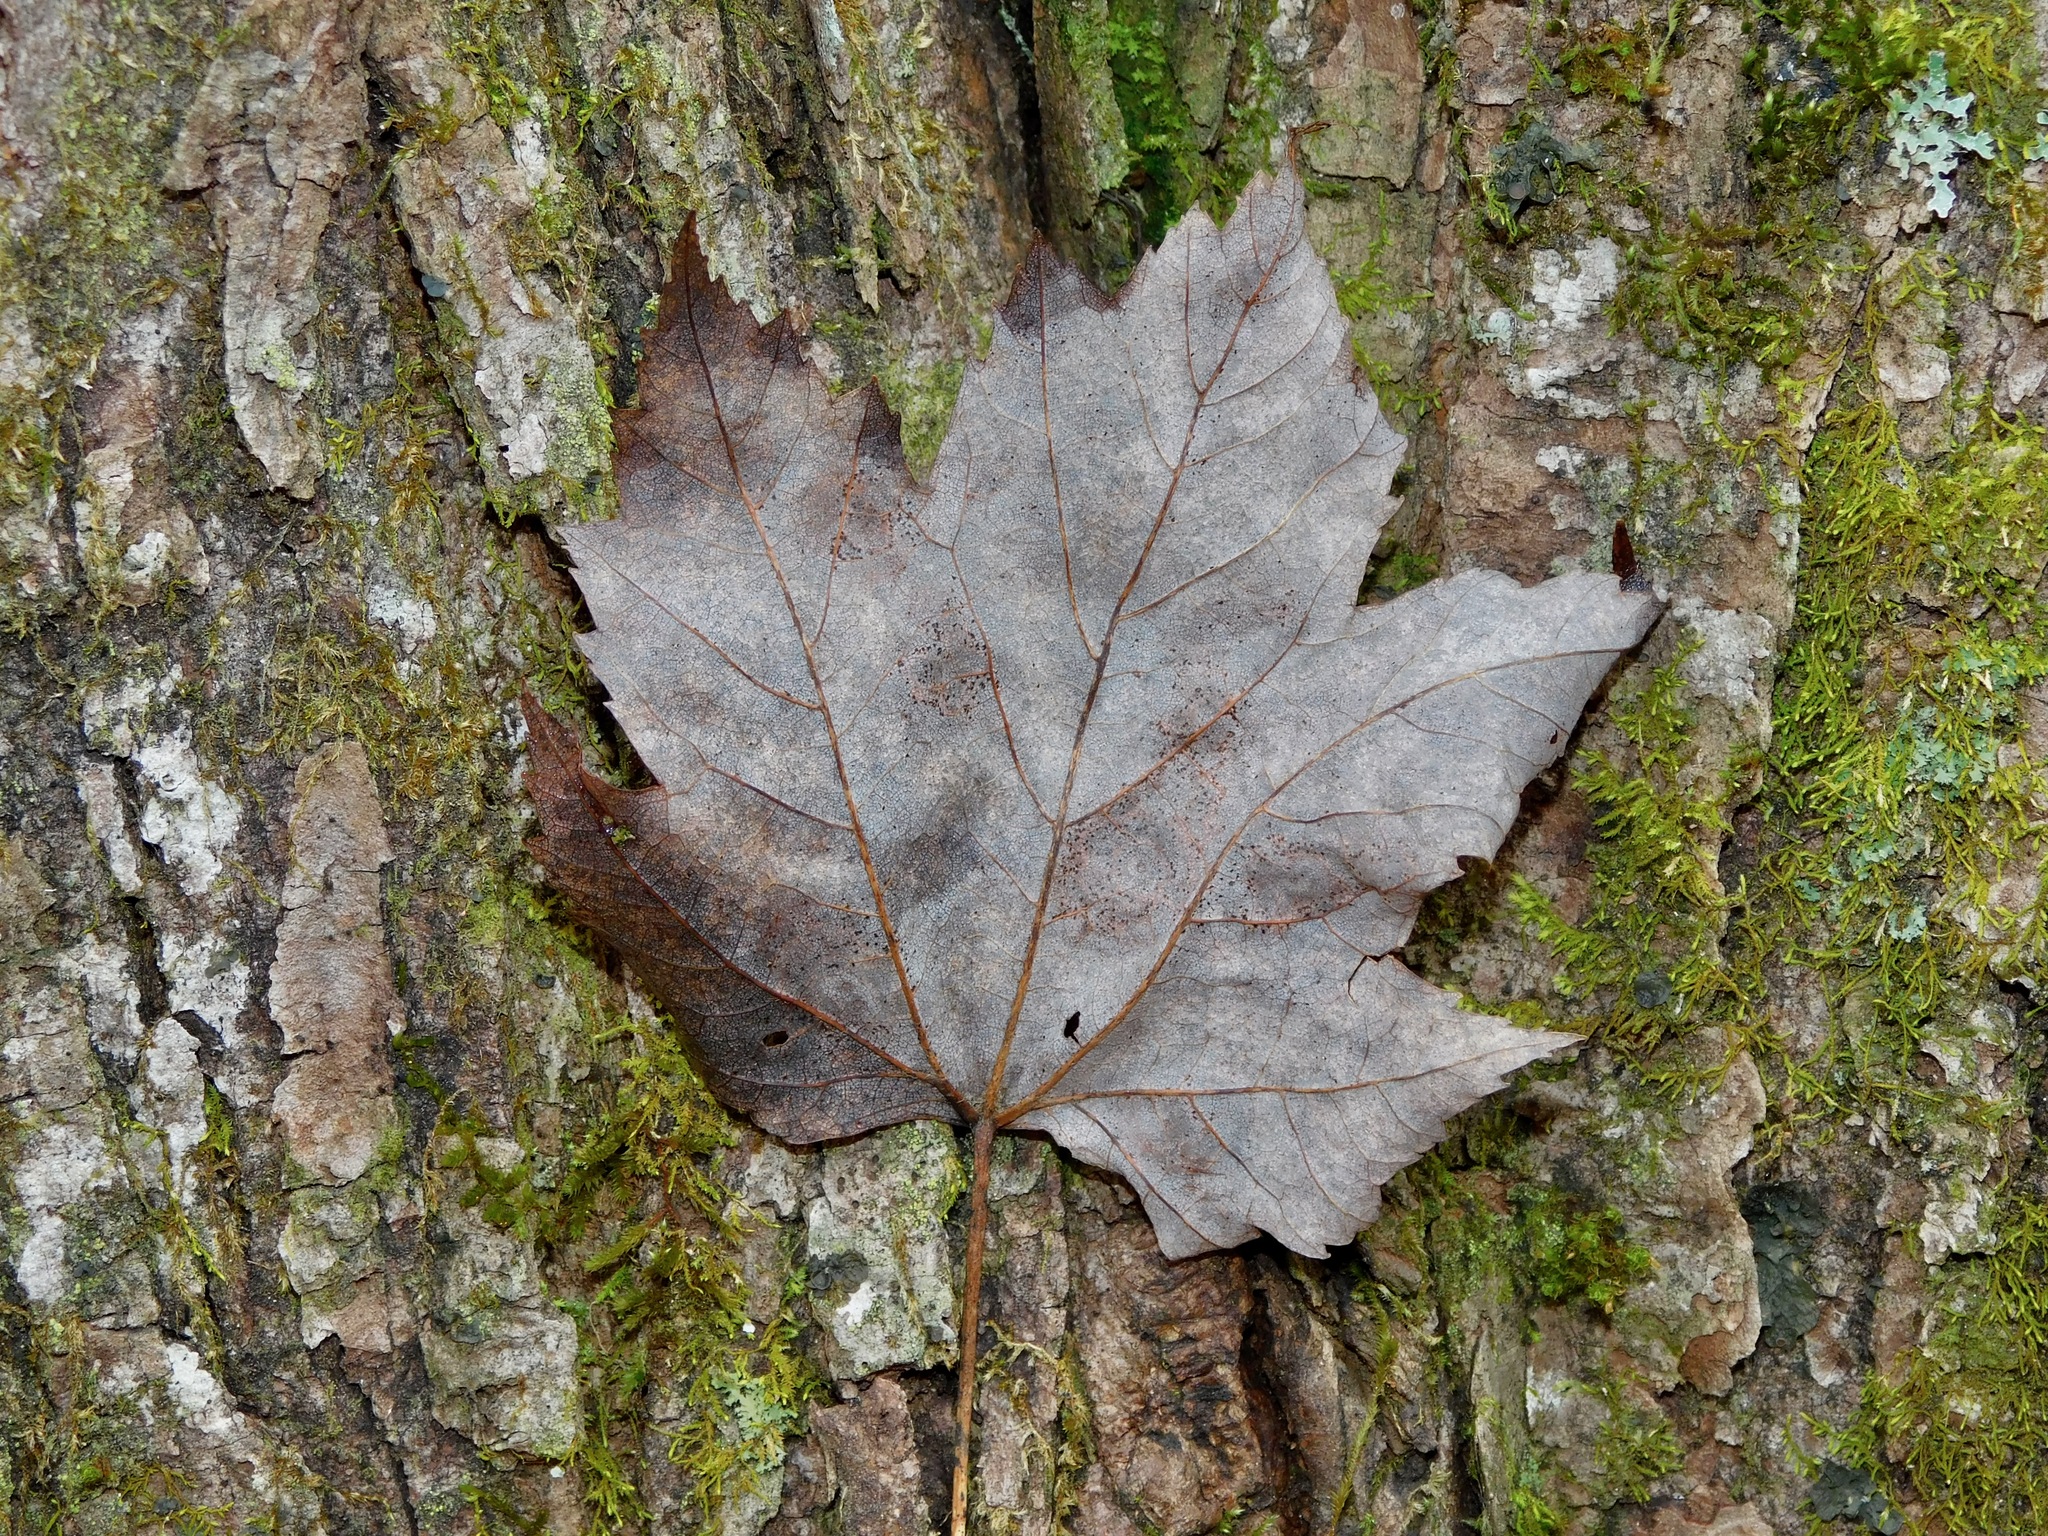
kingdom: Plantae
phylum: Tracheophyta
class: Magnoliopsida
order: Sapindales
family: Sapindaceae
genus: Acer
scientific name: Acer freemanii
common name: Freeman maple
